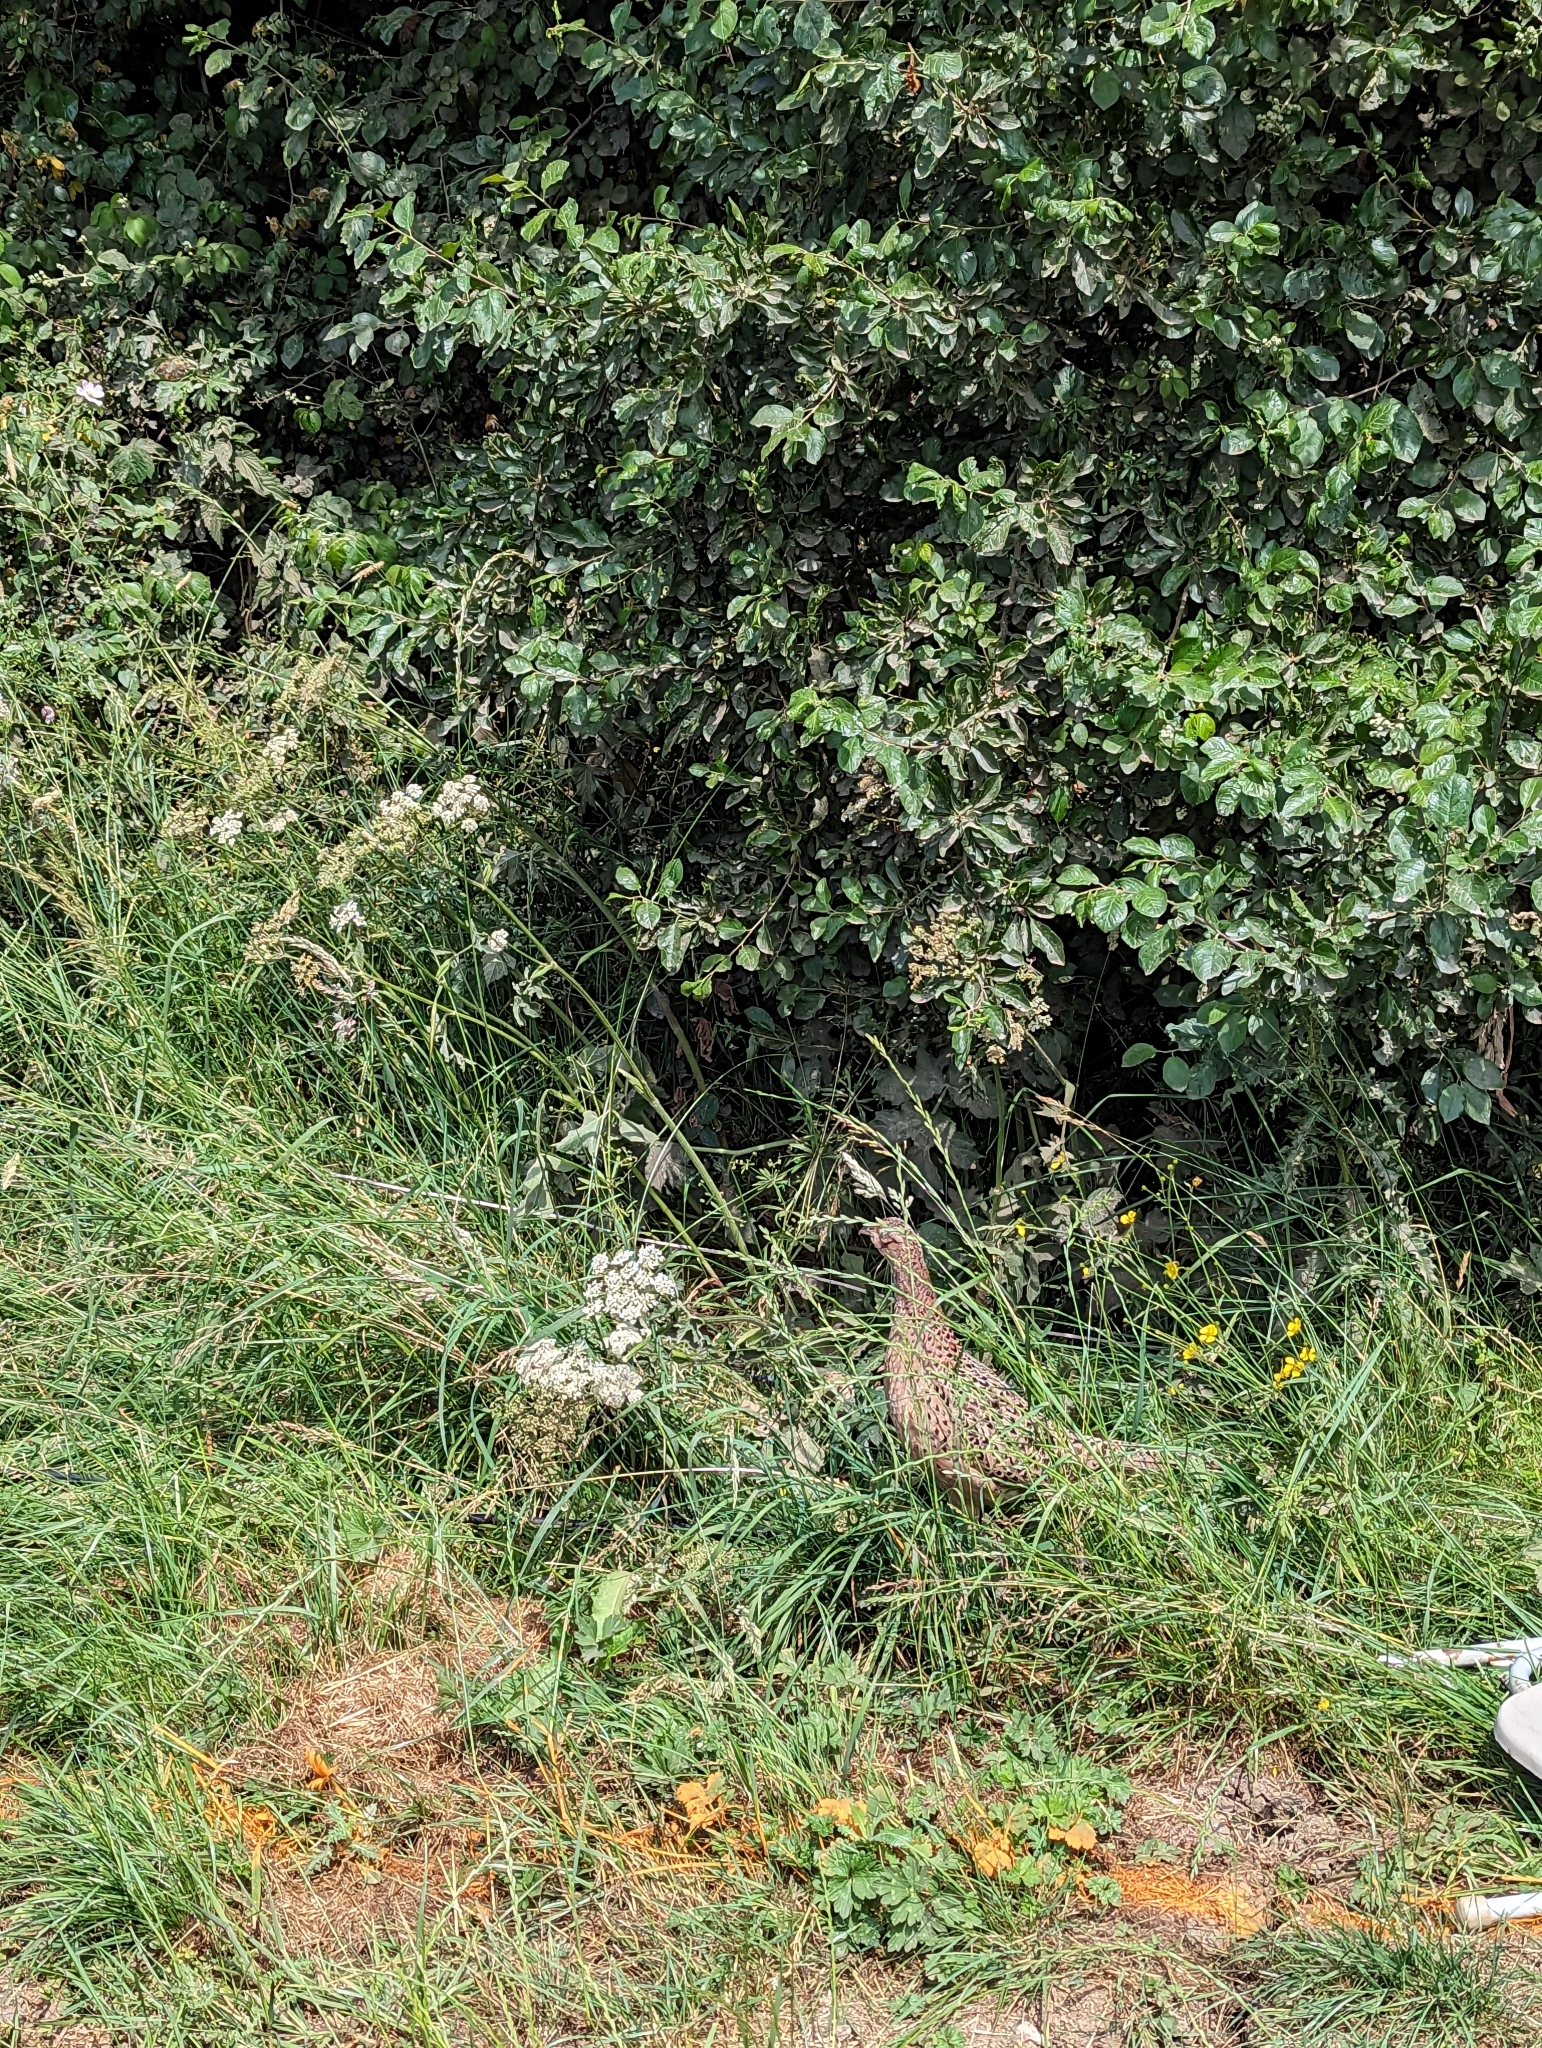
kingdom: Animalia
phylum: Chordata
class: Aves
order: Galliformes
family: Phasianidae
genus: Phasianus
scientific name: Phasianus colchicus
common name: Common pheasant
